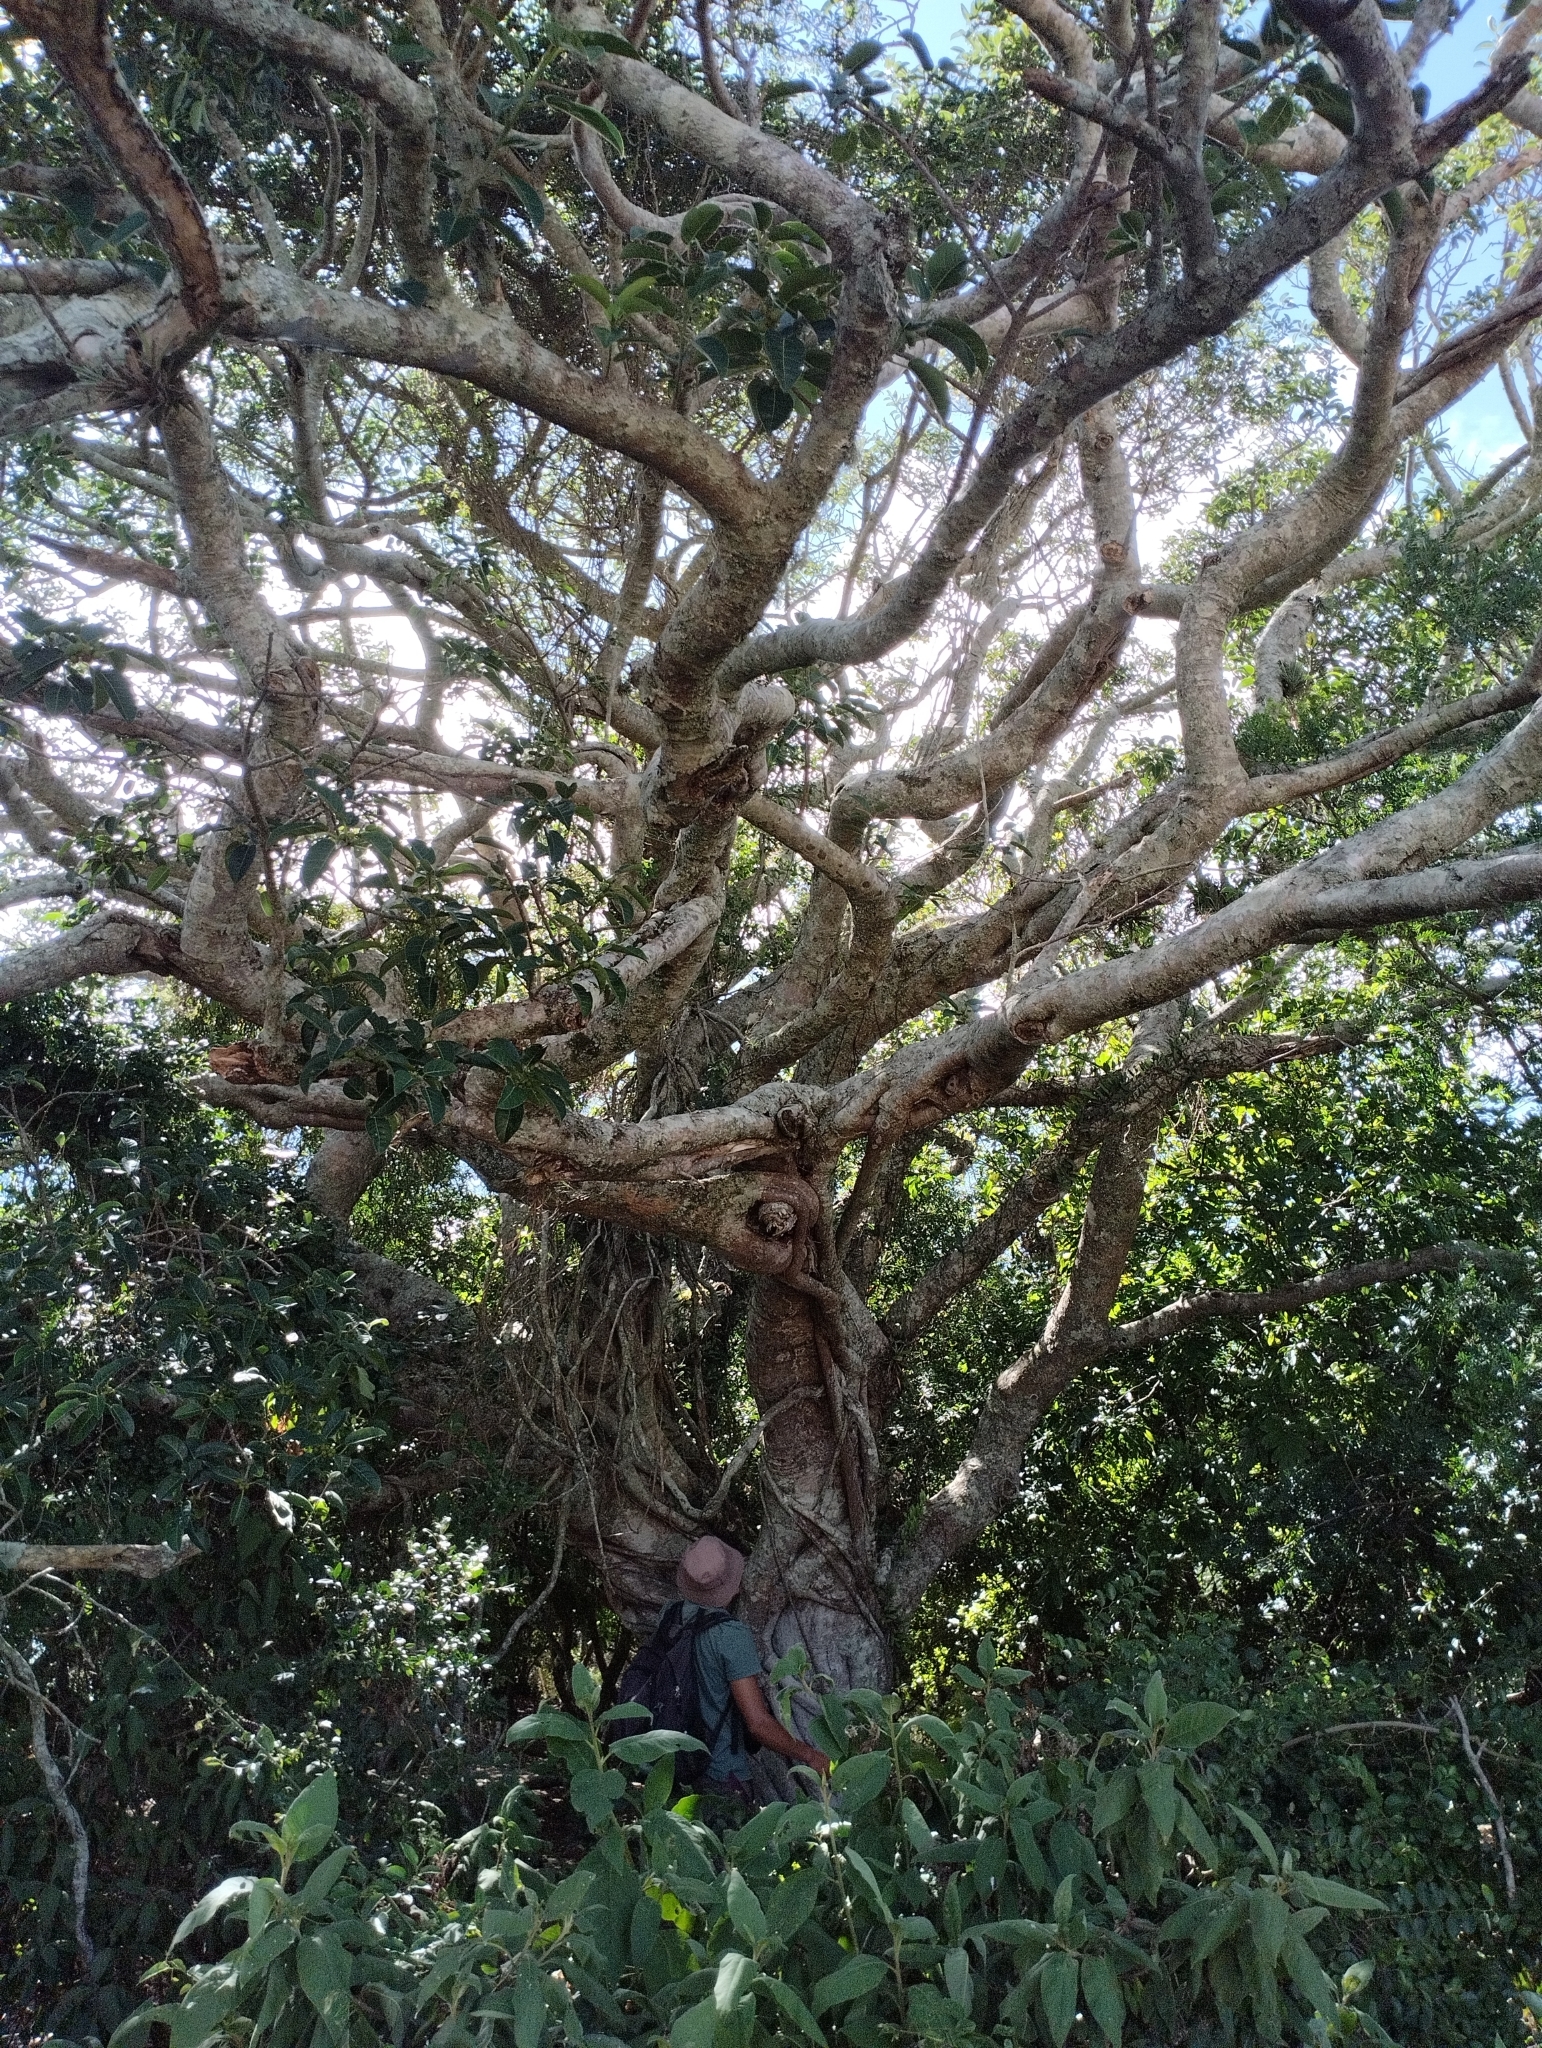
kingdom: Plantae
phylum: Tracheophyta
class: Magnoliopsida
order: Rosales
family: Moraceae
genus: Ficus
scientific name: Ficus luschnathiana
